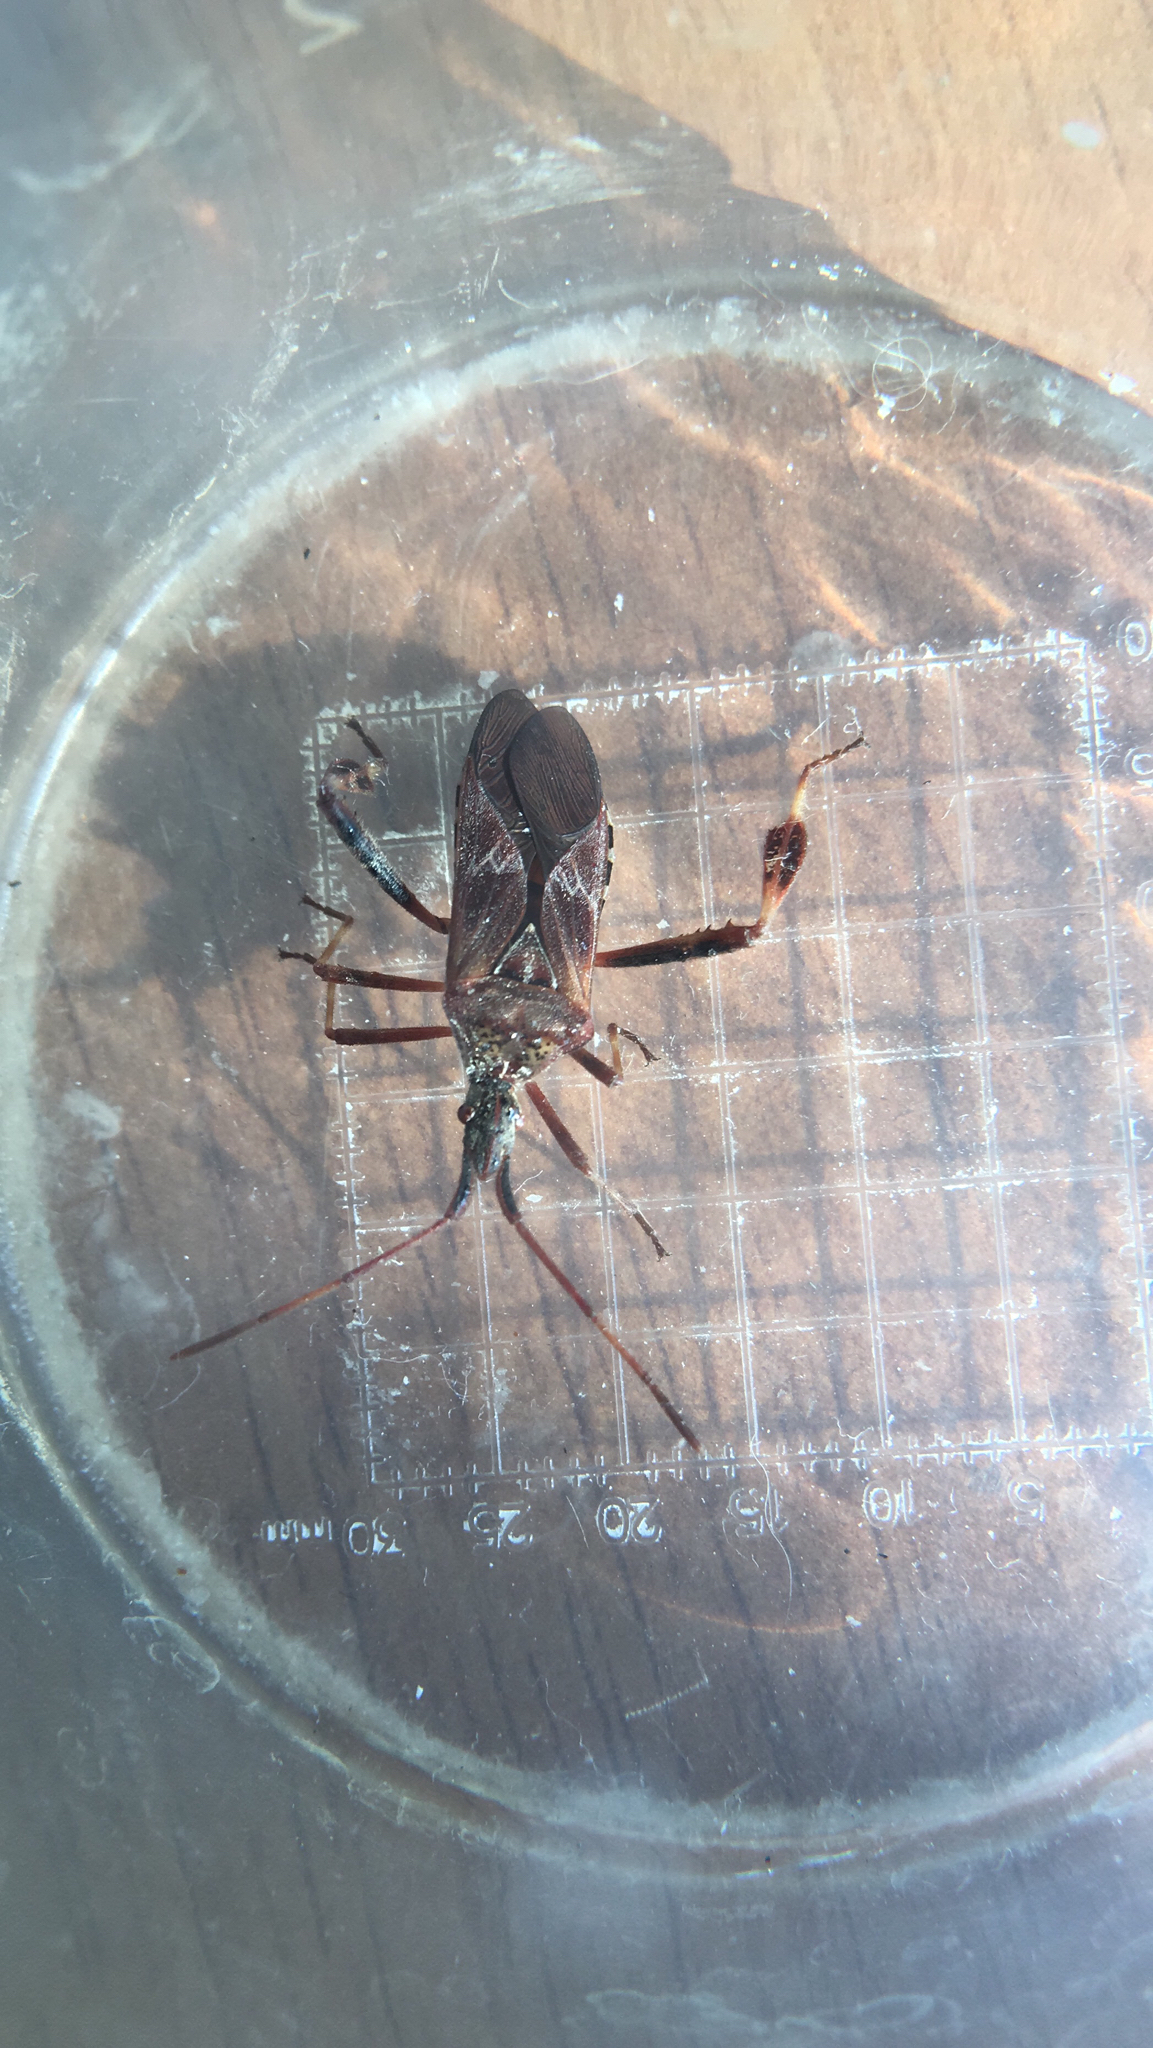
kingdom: Animalia
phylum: Arthropoda
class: Insecta
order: Hemiptera
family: Coreidae
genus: Leptoglossus
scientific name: Leptoglossus occidentalis
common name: Western conifer-seed bug
